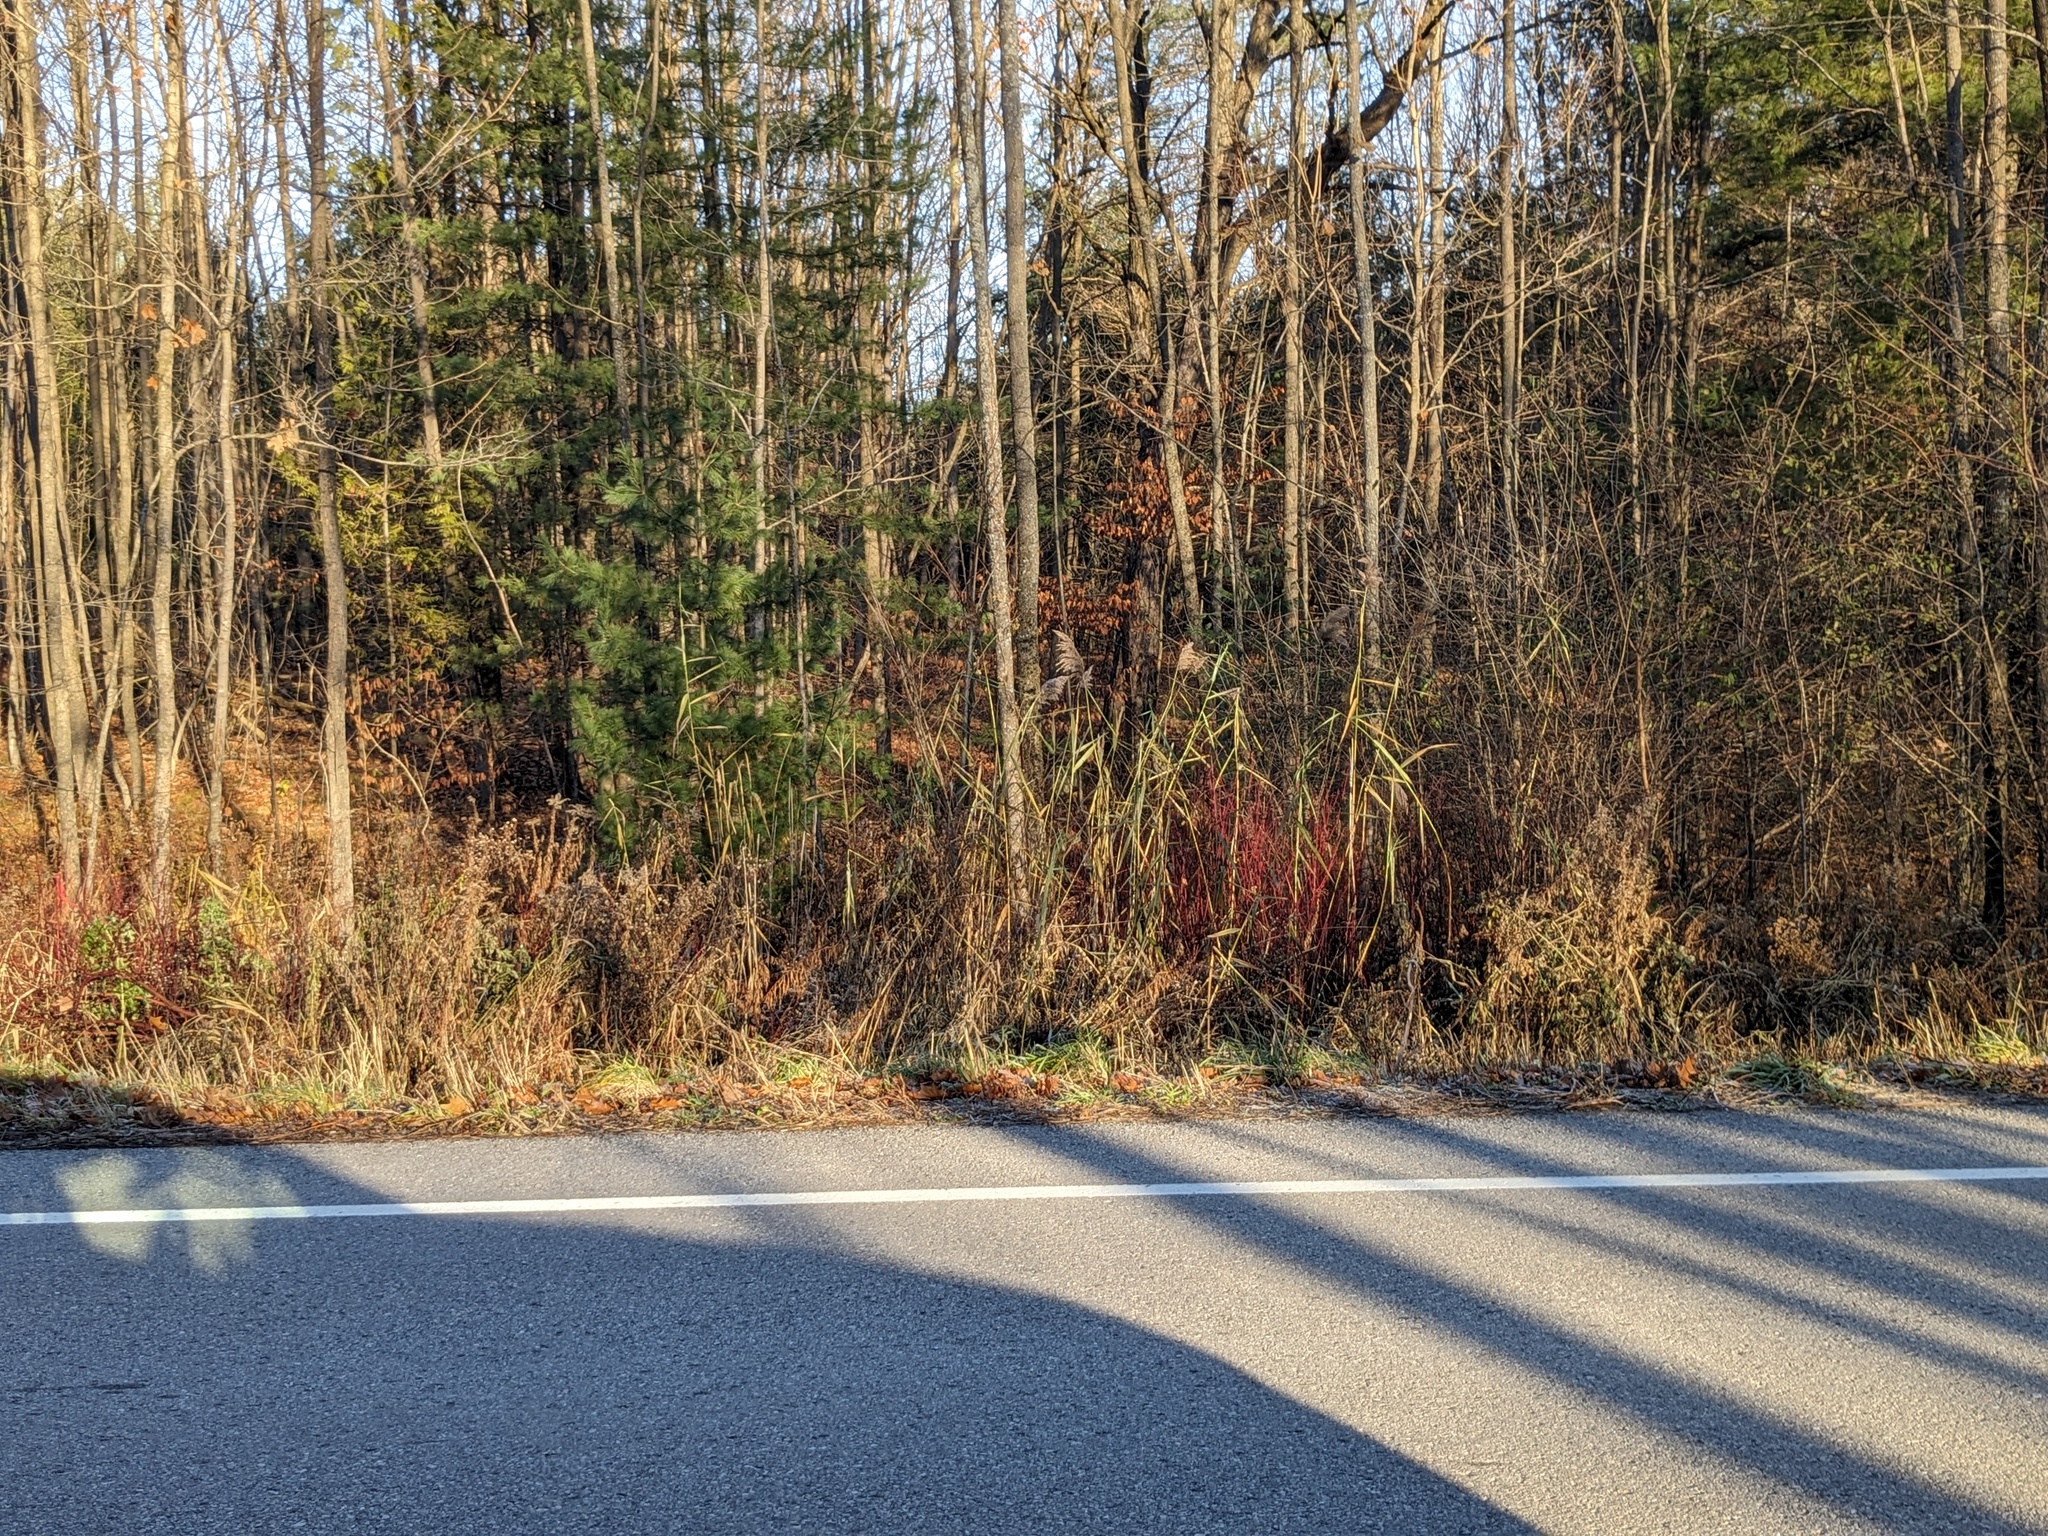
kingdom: Plantae
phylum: Tracheophyta
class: Liliopsida
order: Poales
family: Poaceae
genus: Phragmites
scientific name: Phragmites australis
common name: Common reed
